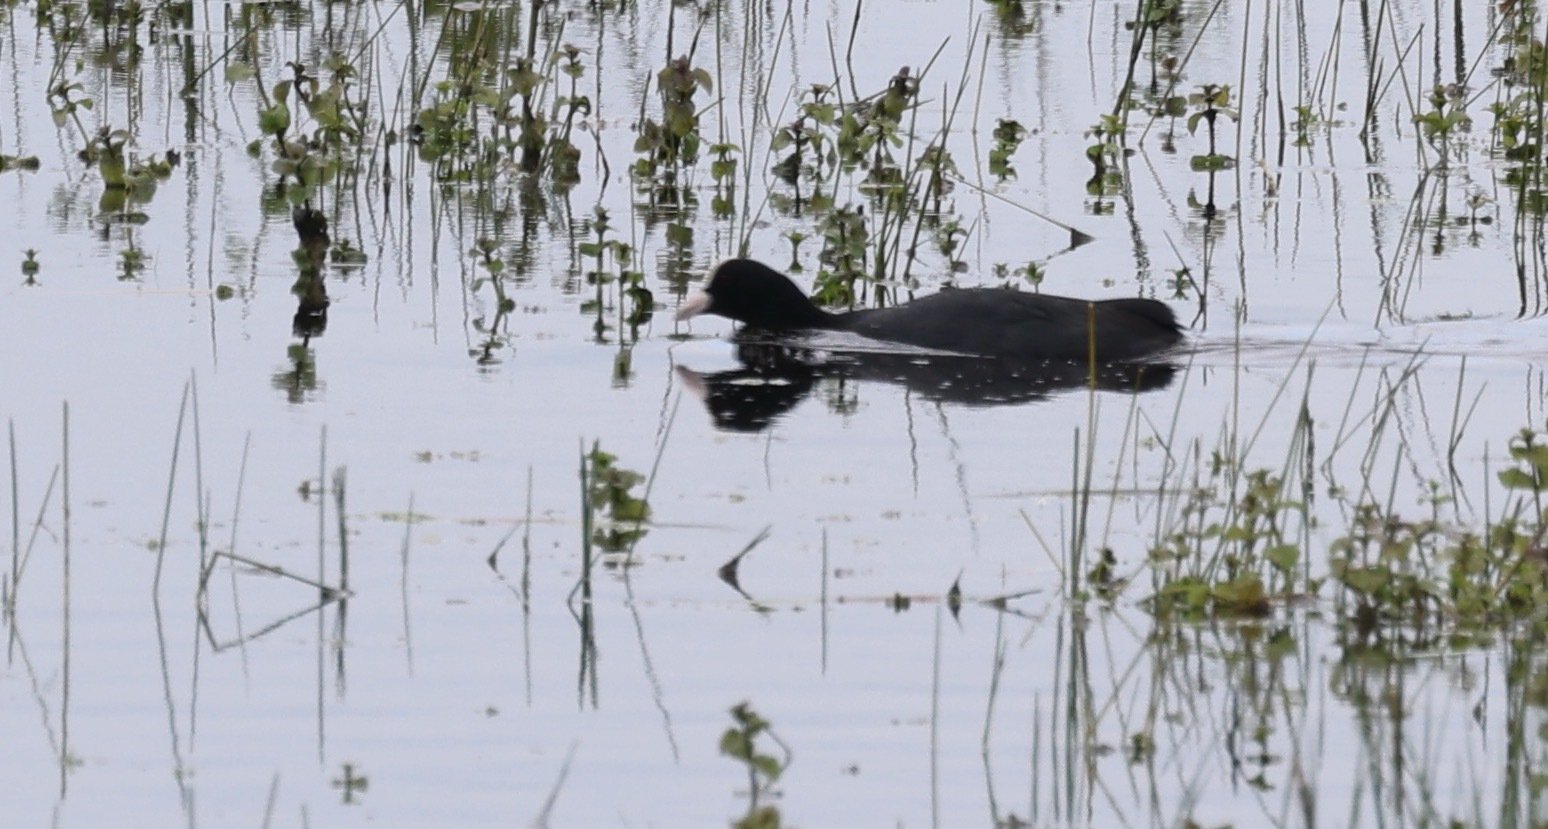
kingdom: Animalia
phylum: Chordata
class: Aves
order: Gruiformes
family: Rallidae
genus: Fulica
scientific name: Fulica atra
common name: Eurasian coot
